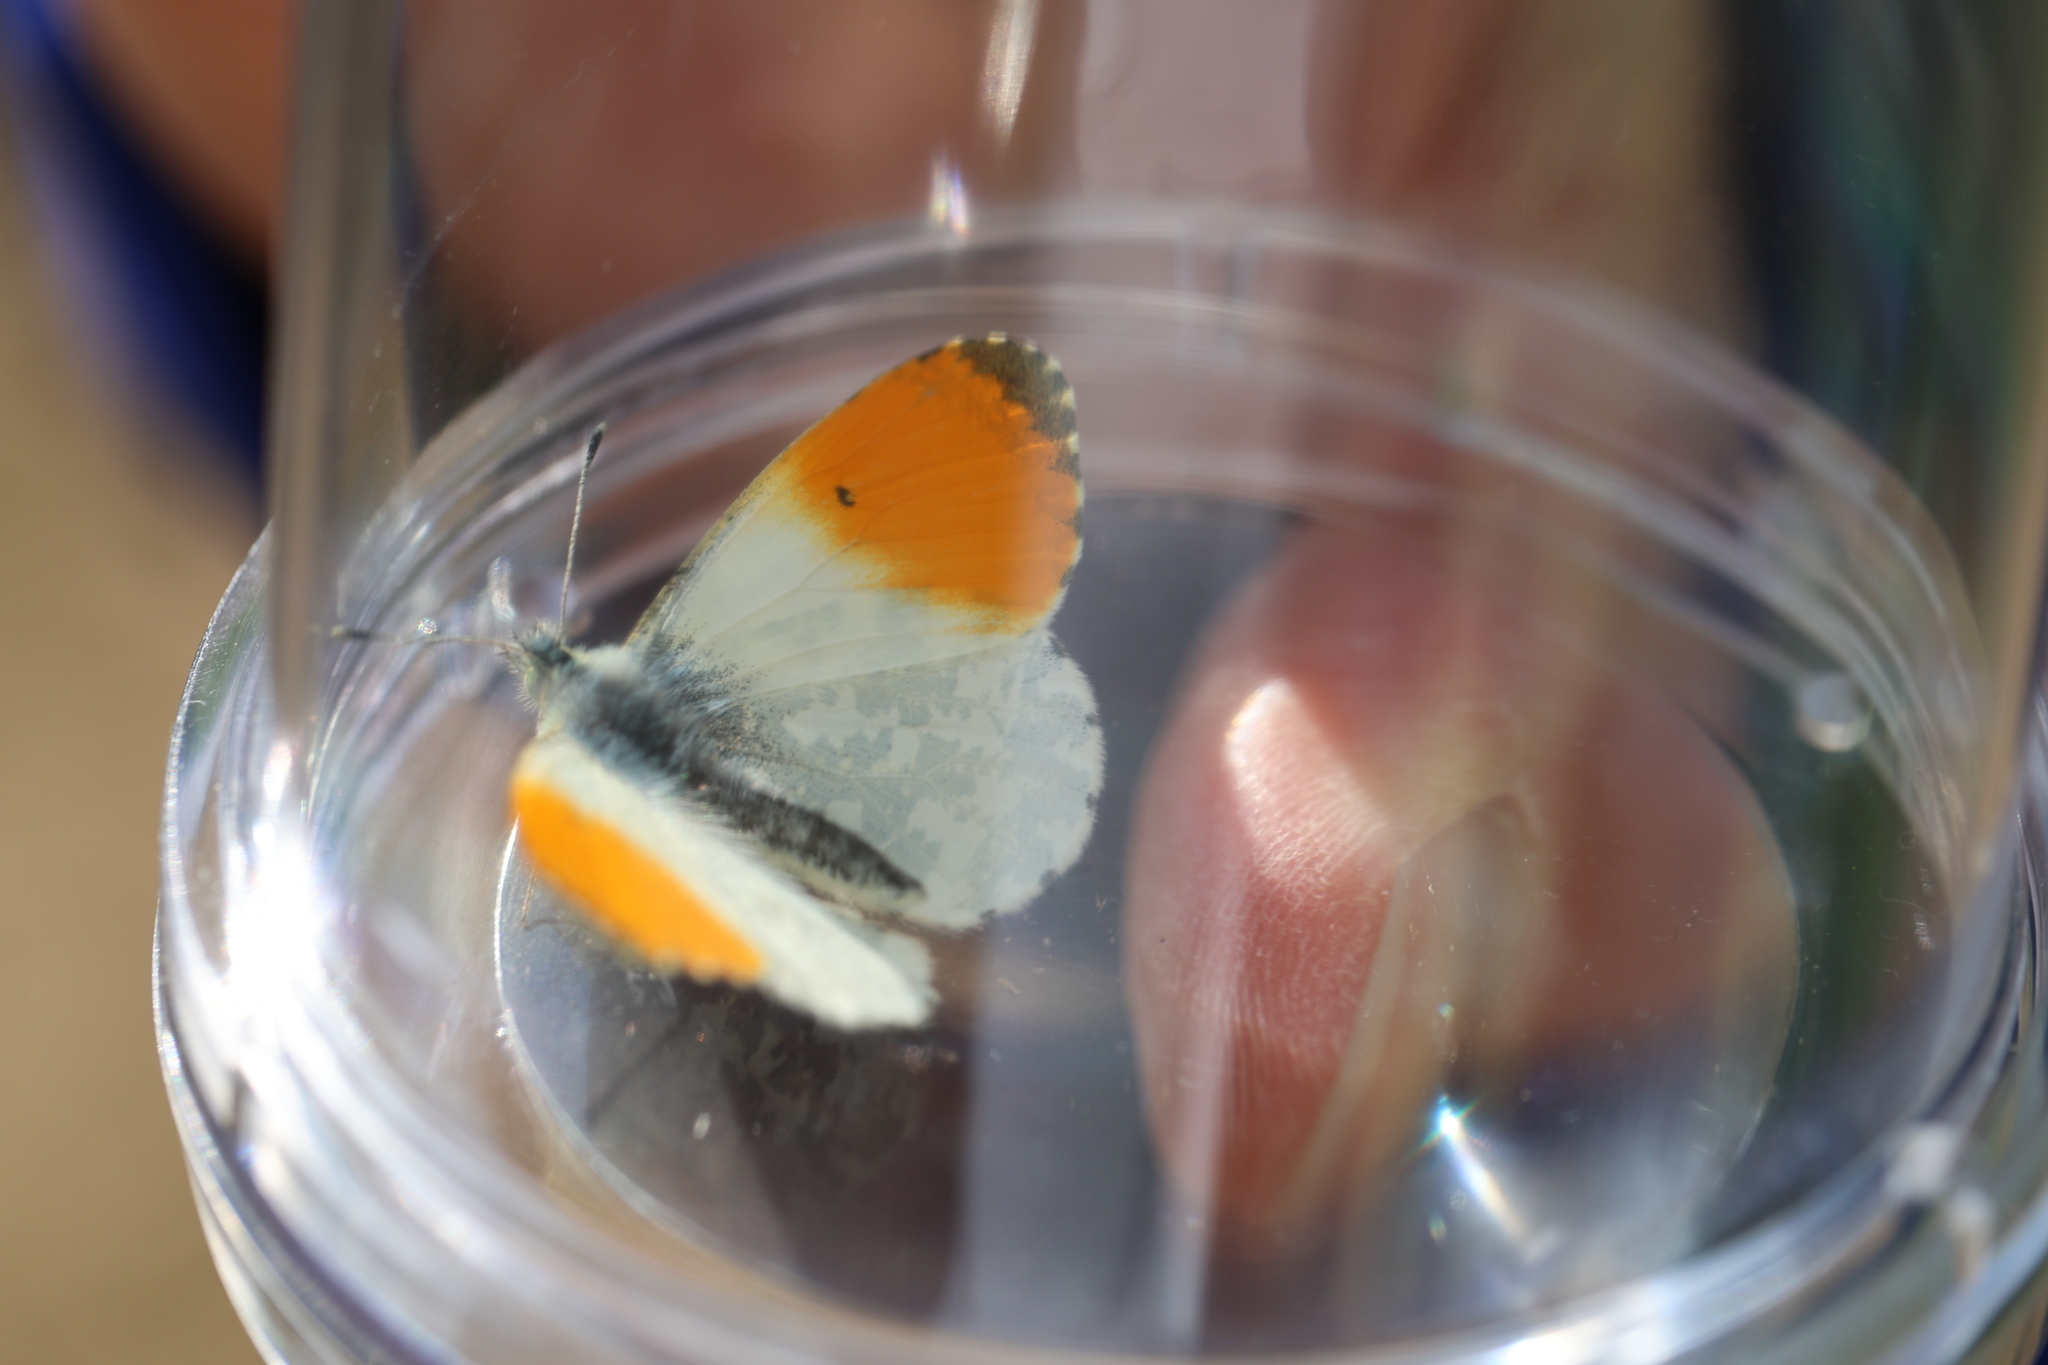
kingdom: Animalia
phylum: Arthropoda
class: Insecta
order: Lepidoptera
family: Pieridae
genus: Anthocharis
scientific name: Anthocharis cardamines
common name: Orange-tip
